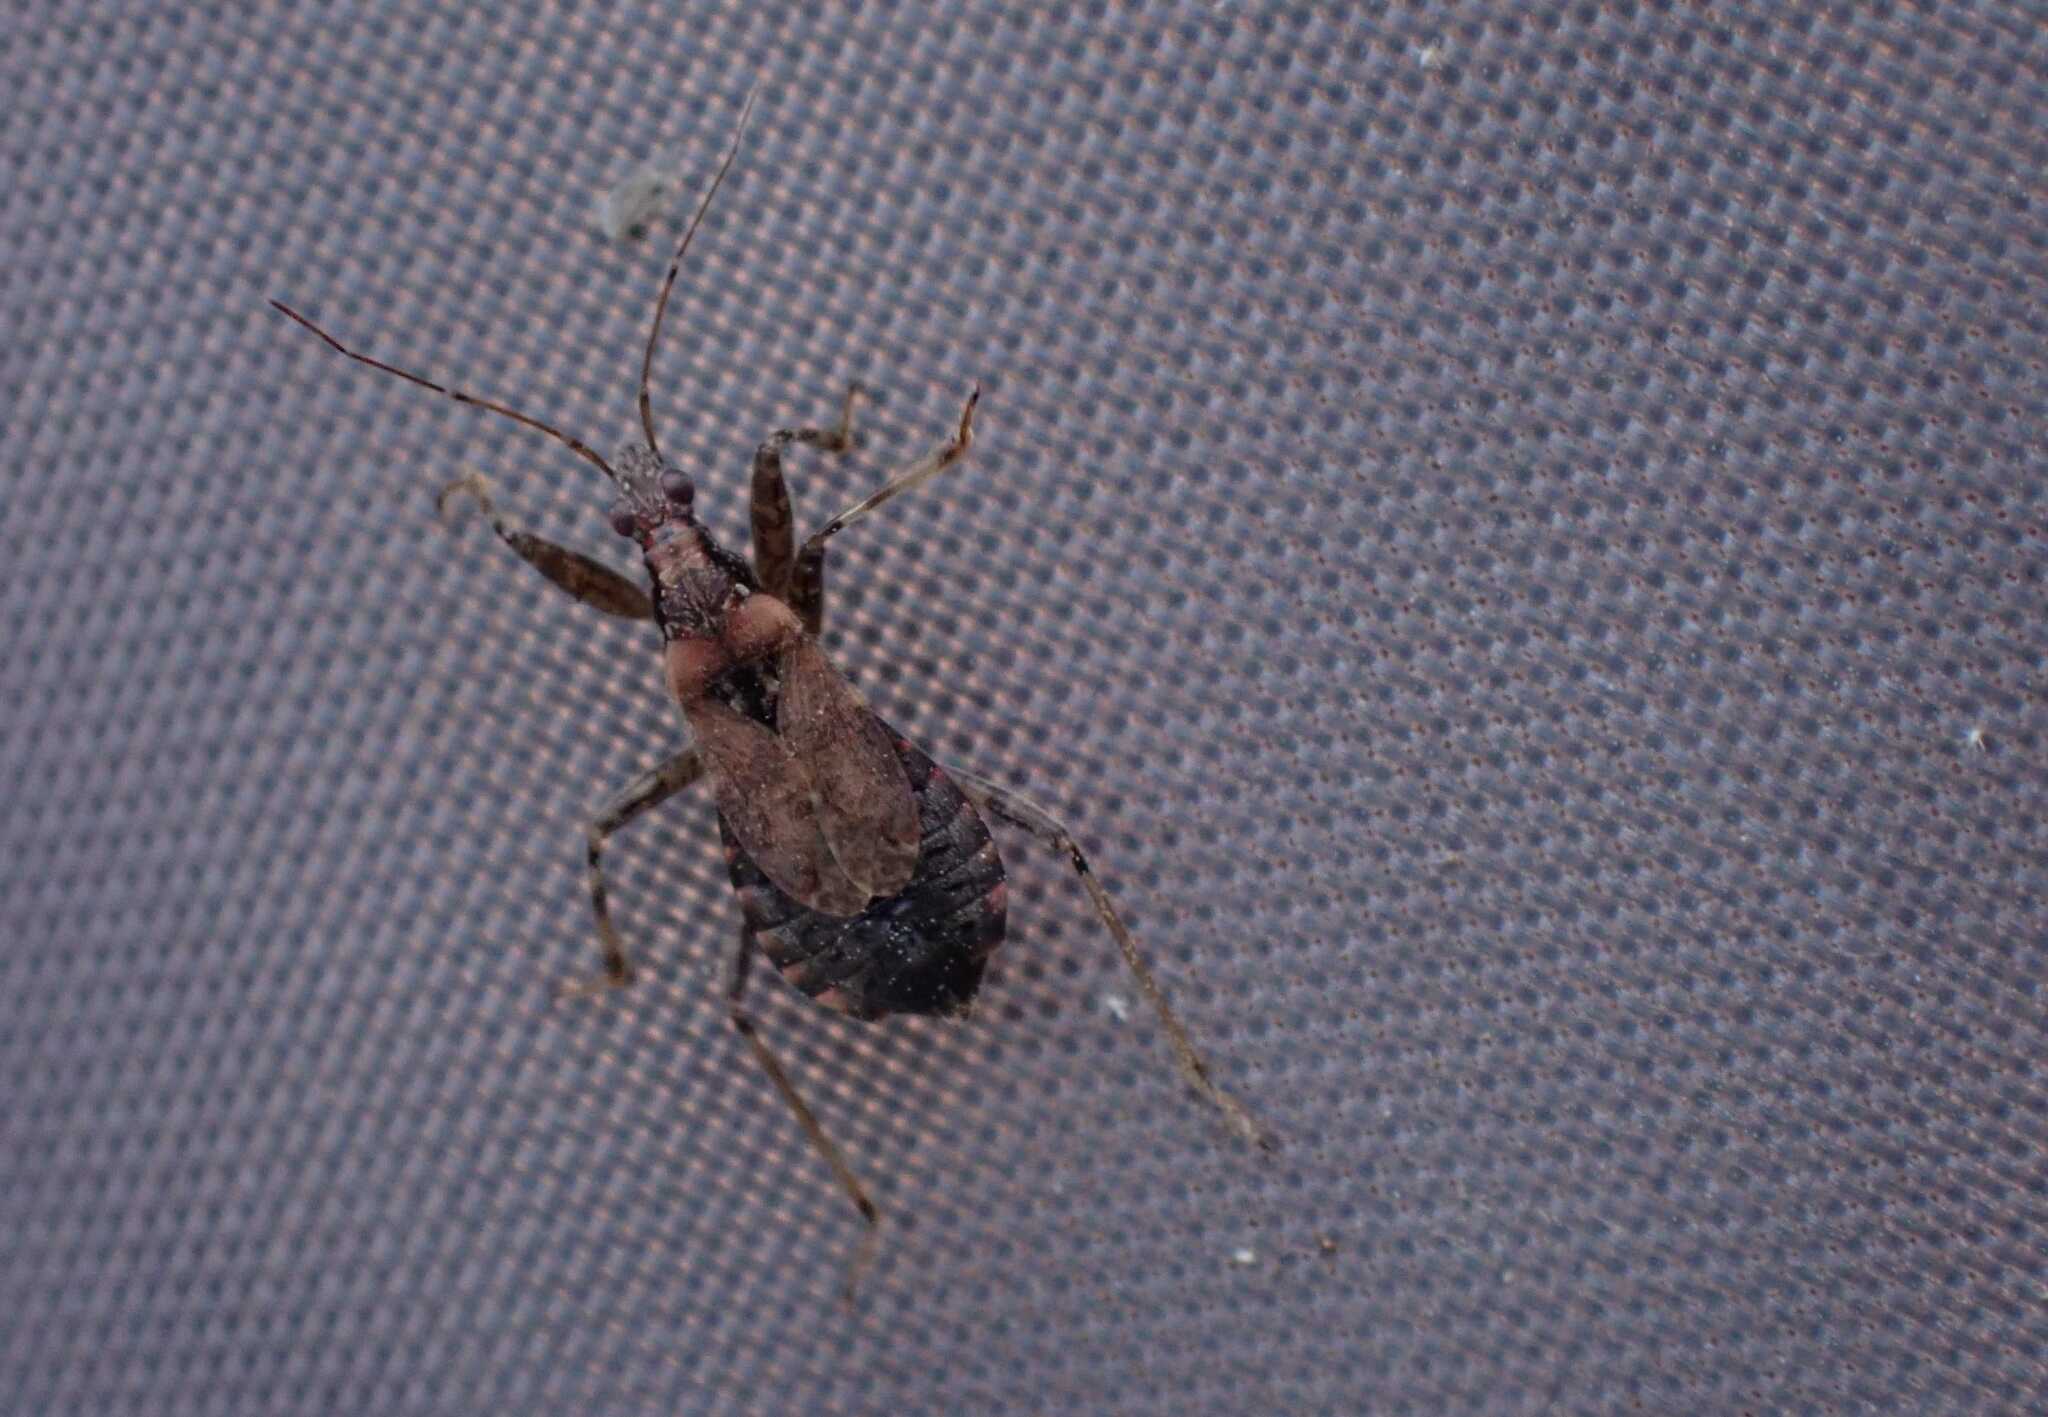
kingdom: Animalia
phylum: Arthropoda
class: Insecta
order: Hemiptera
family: Nabidae
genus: Himacerus
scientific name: Himacerus mirmicoides
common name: Ant damsel bug
